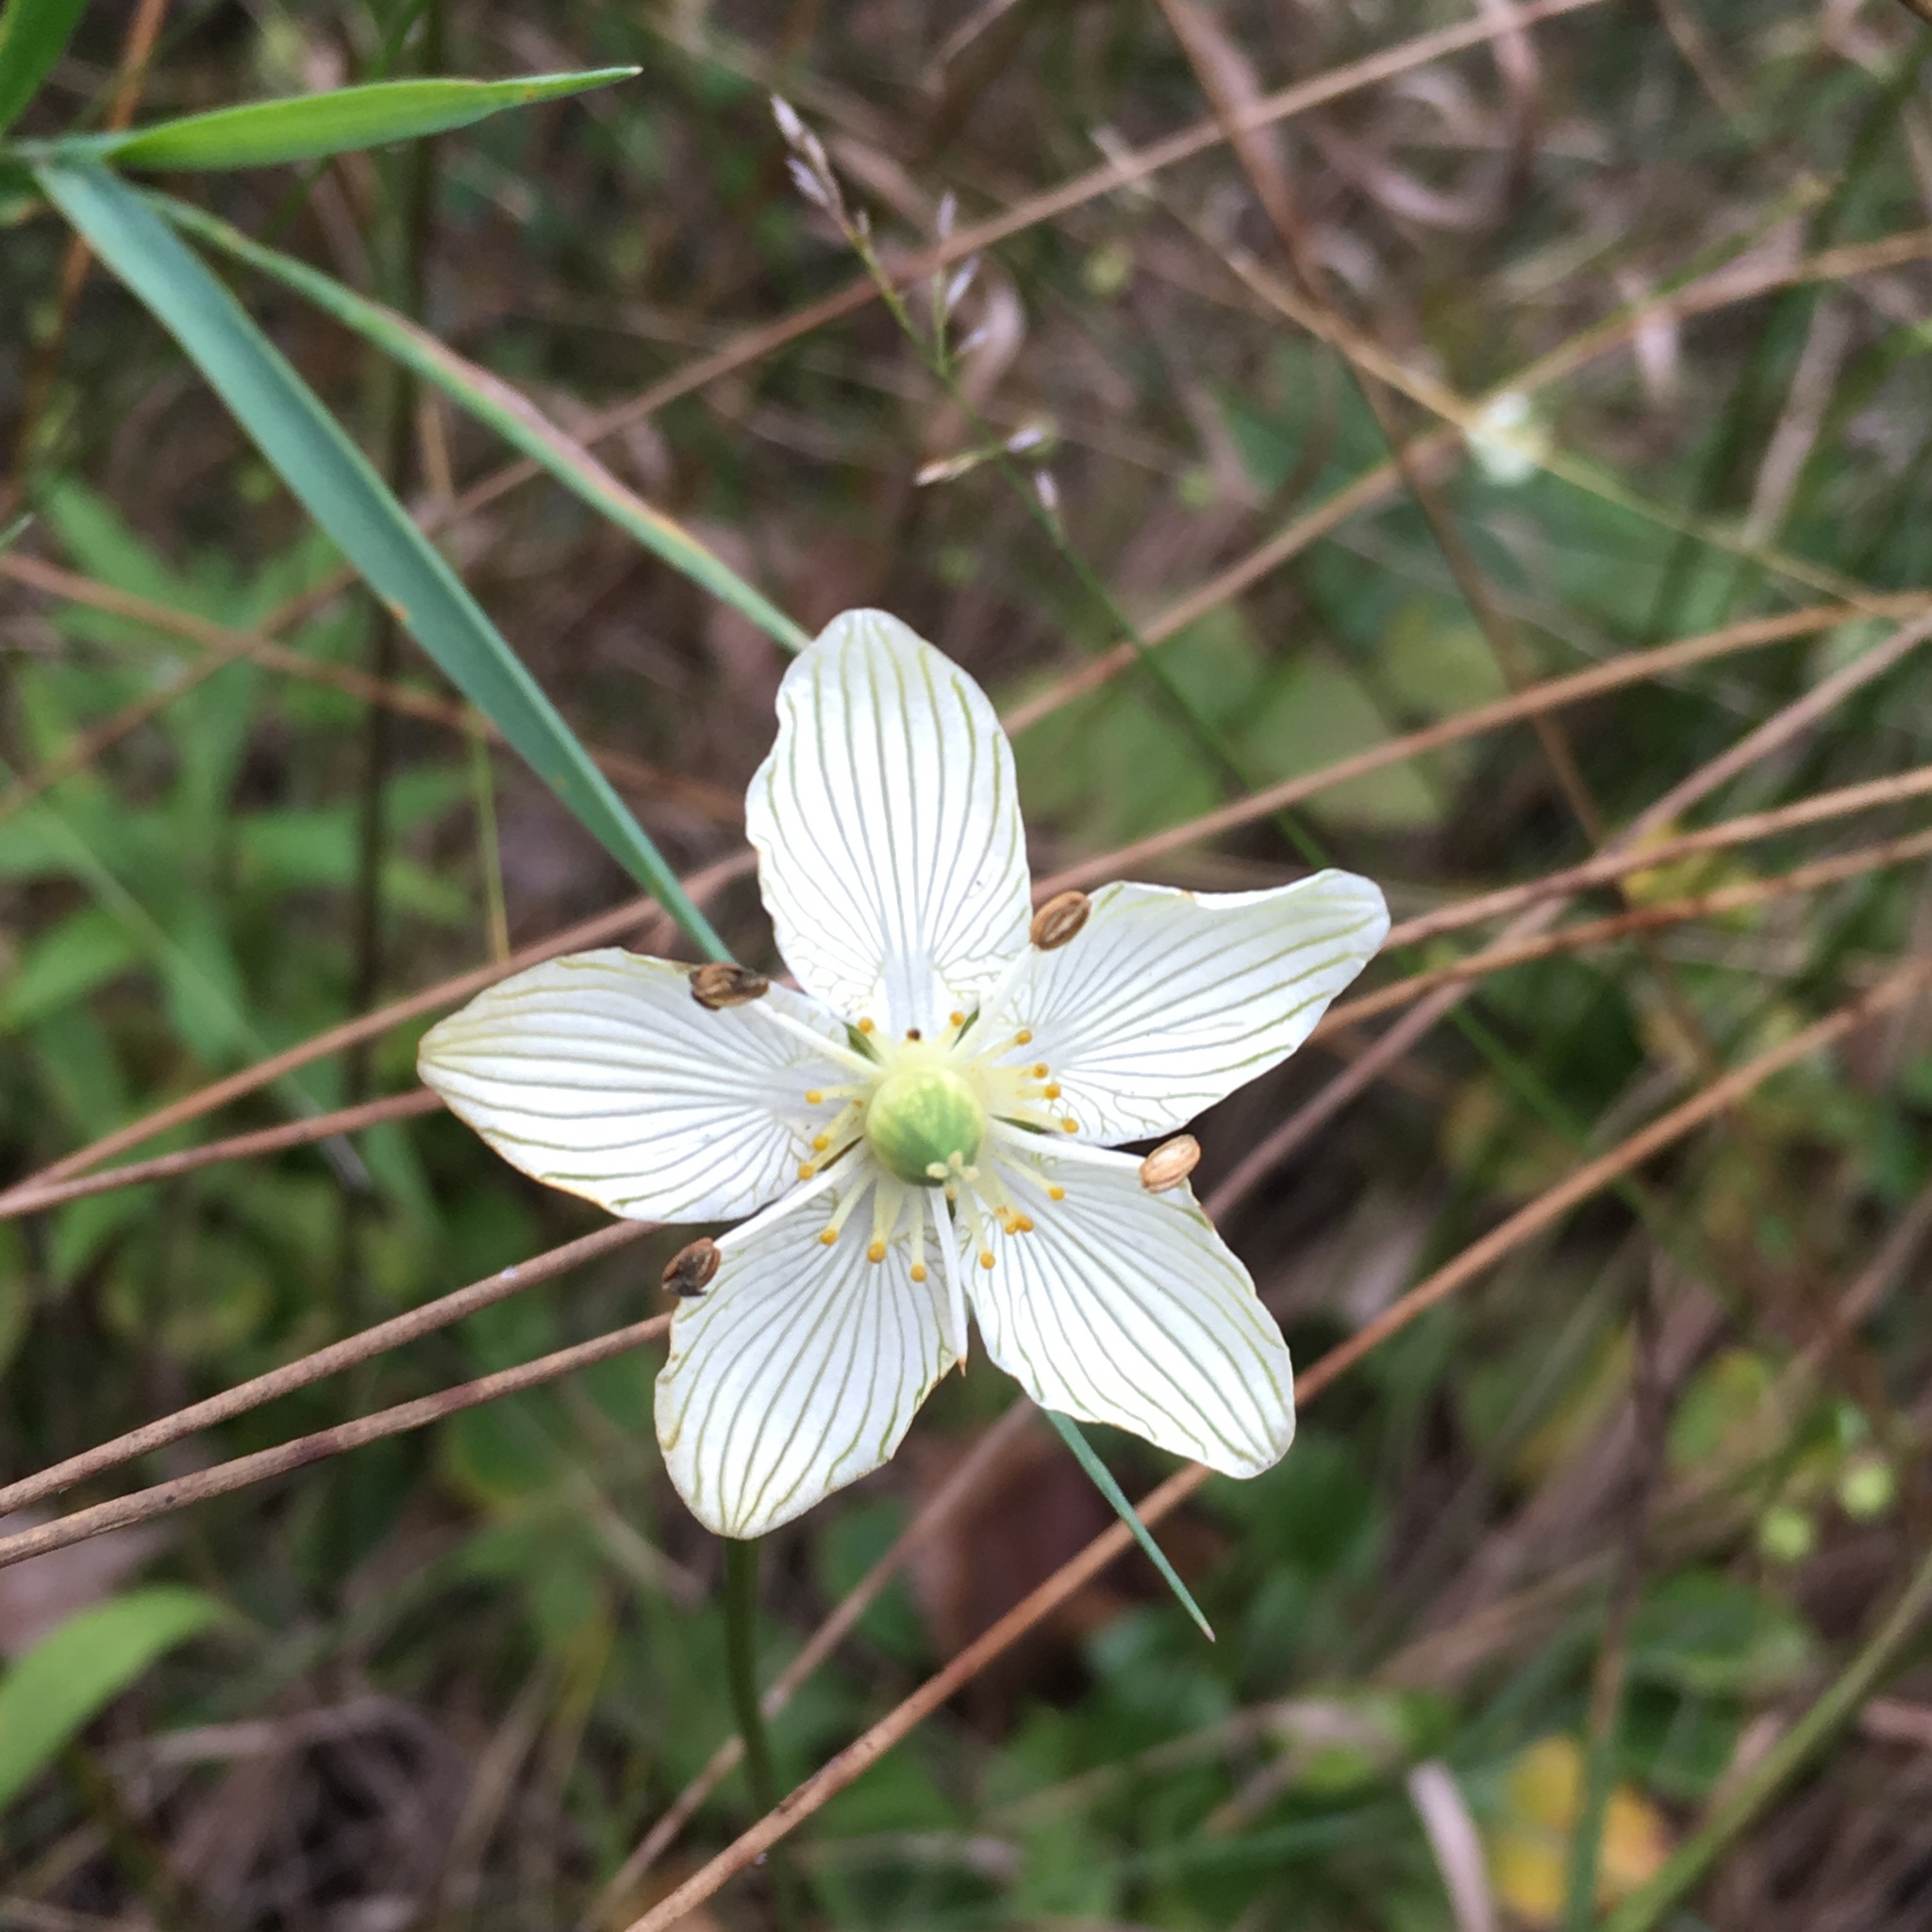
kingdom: Plantae
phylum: Tracheophyta
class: Magnoliopsida
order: Celastrales
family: Parnassiaceae
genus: Parnassia
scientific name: Parnassia glauca
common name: American grass-of-parnassus
